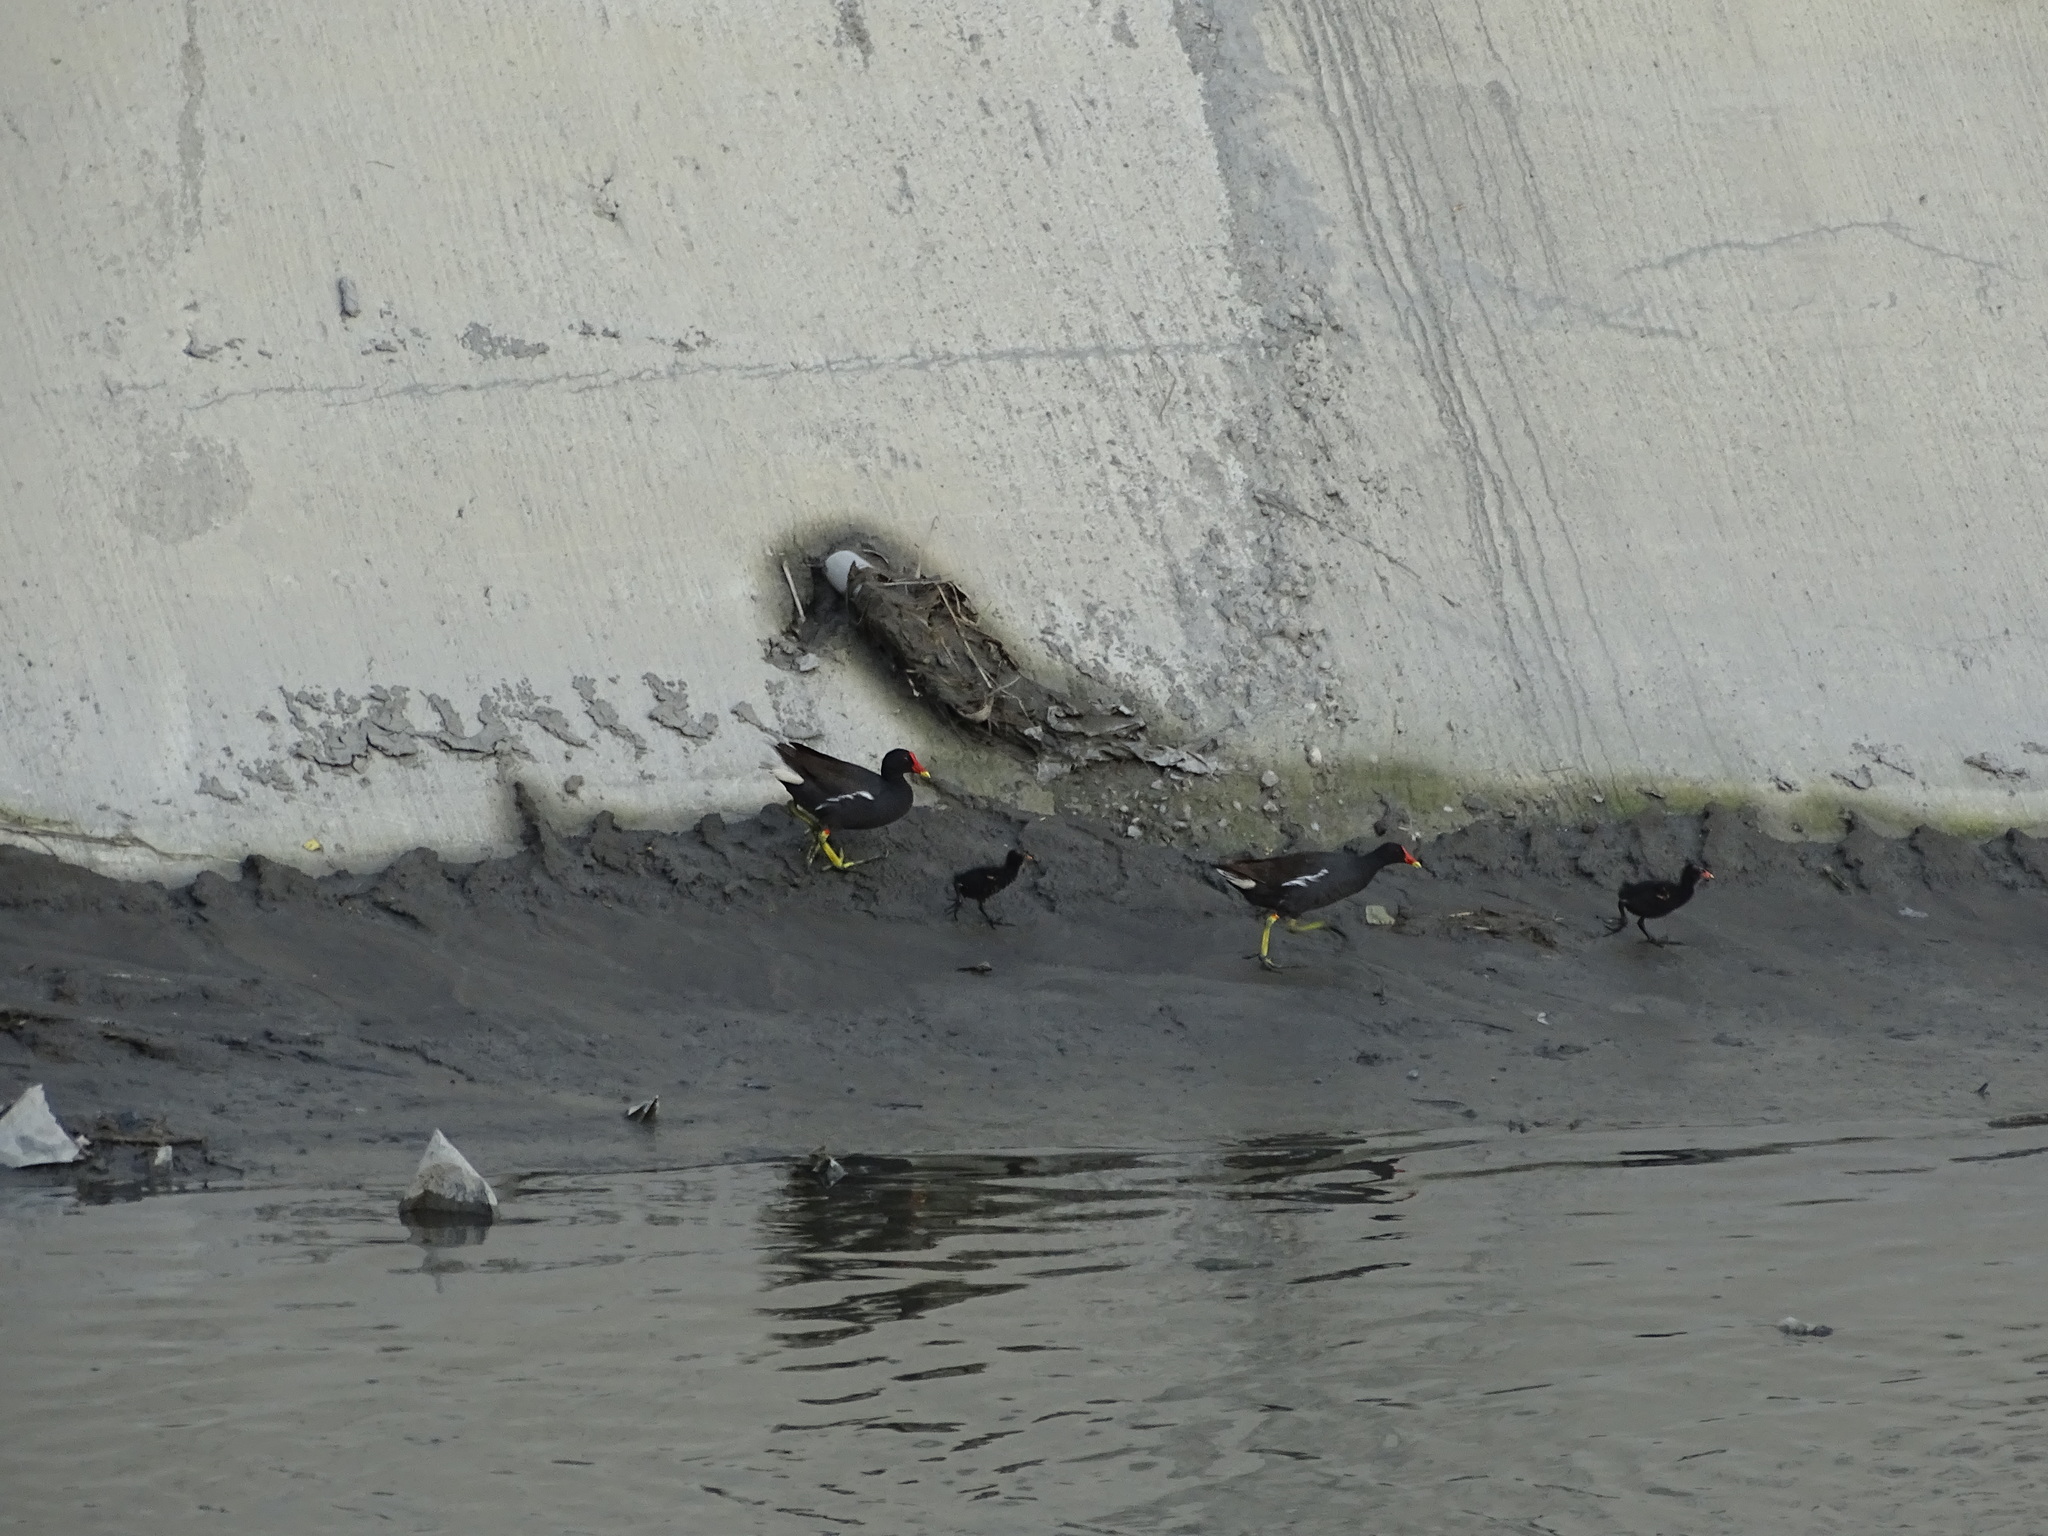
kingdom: Animalia
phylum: Chordata
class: Aves
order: Gruiformes
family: Rallidae
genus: Gallinula
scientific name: Gallinula chloropus
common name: Common moorhen
